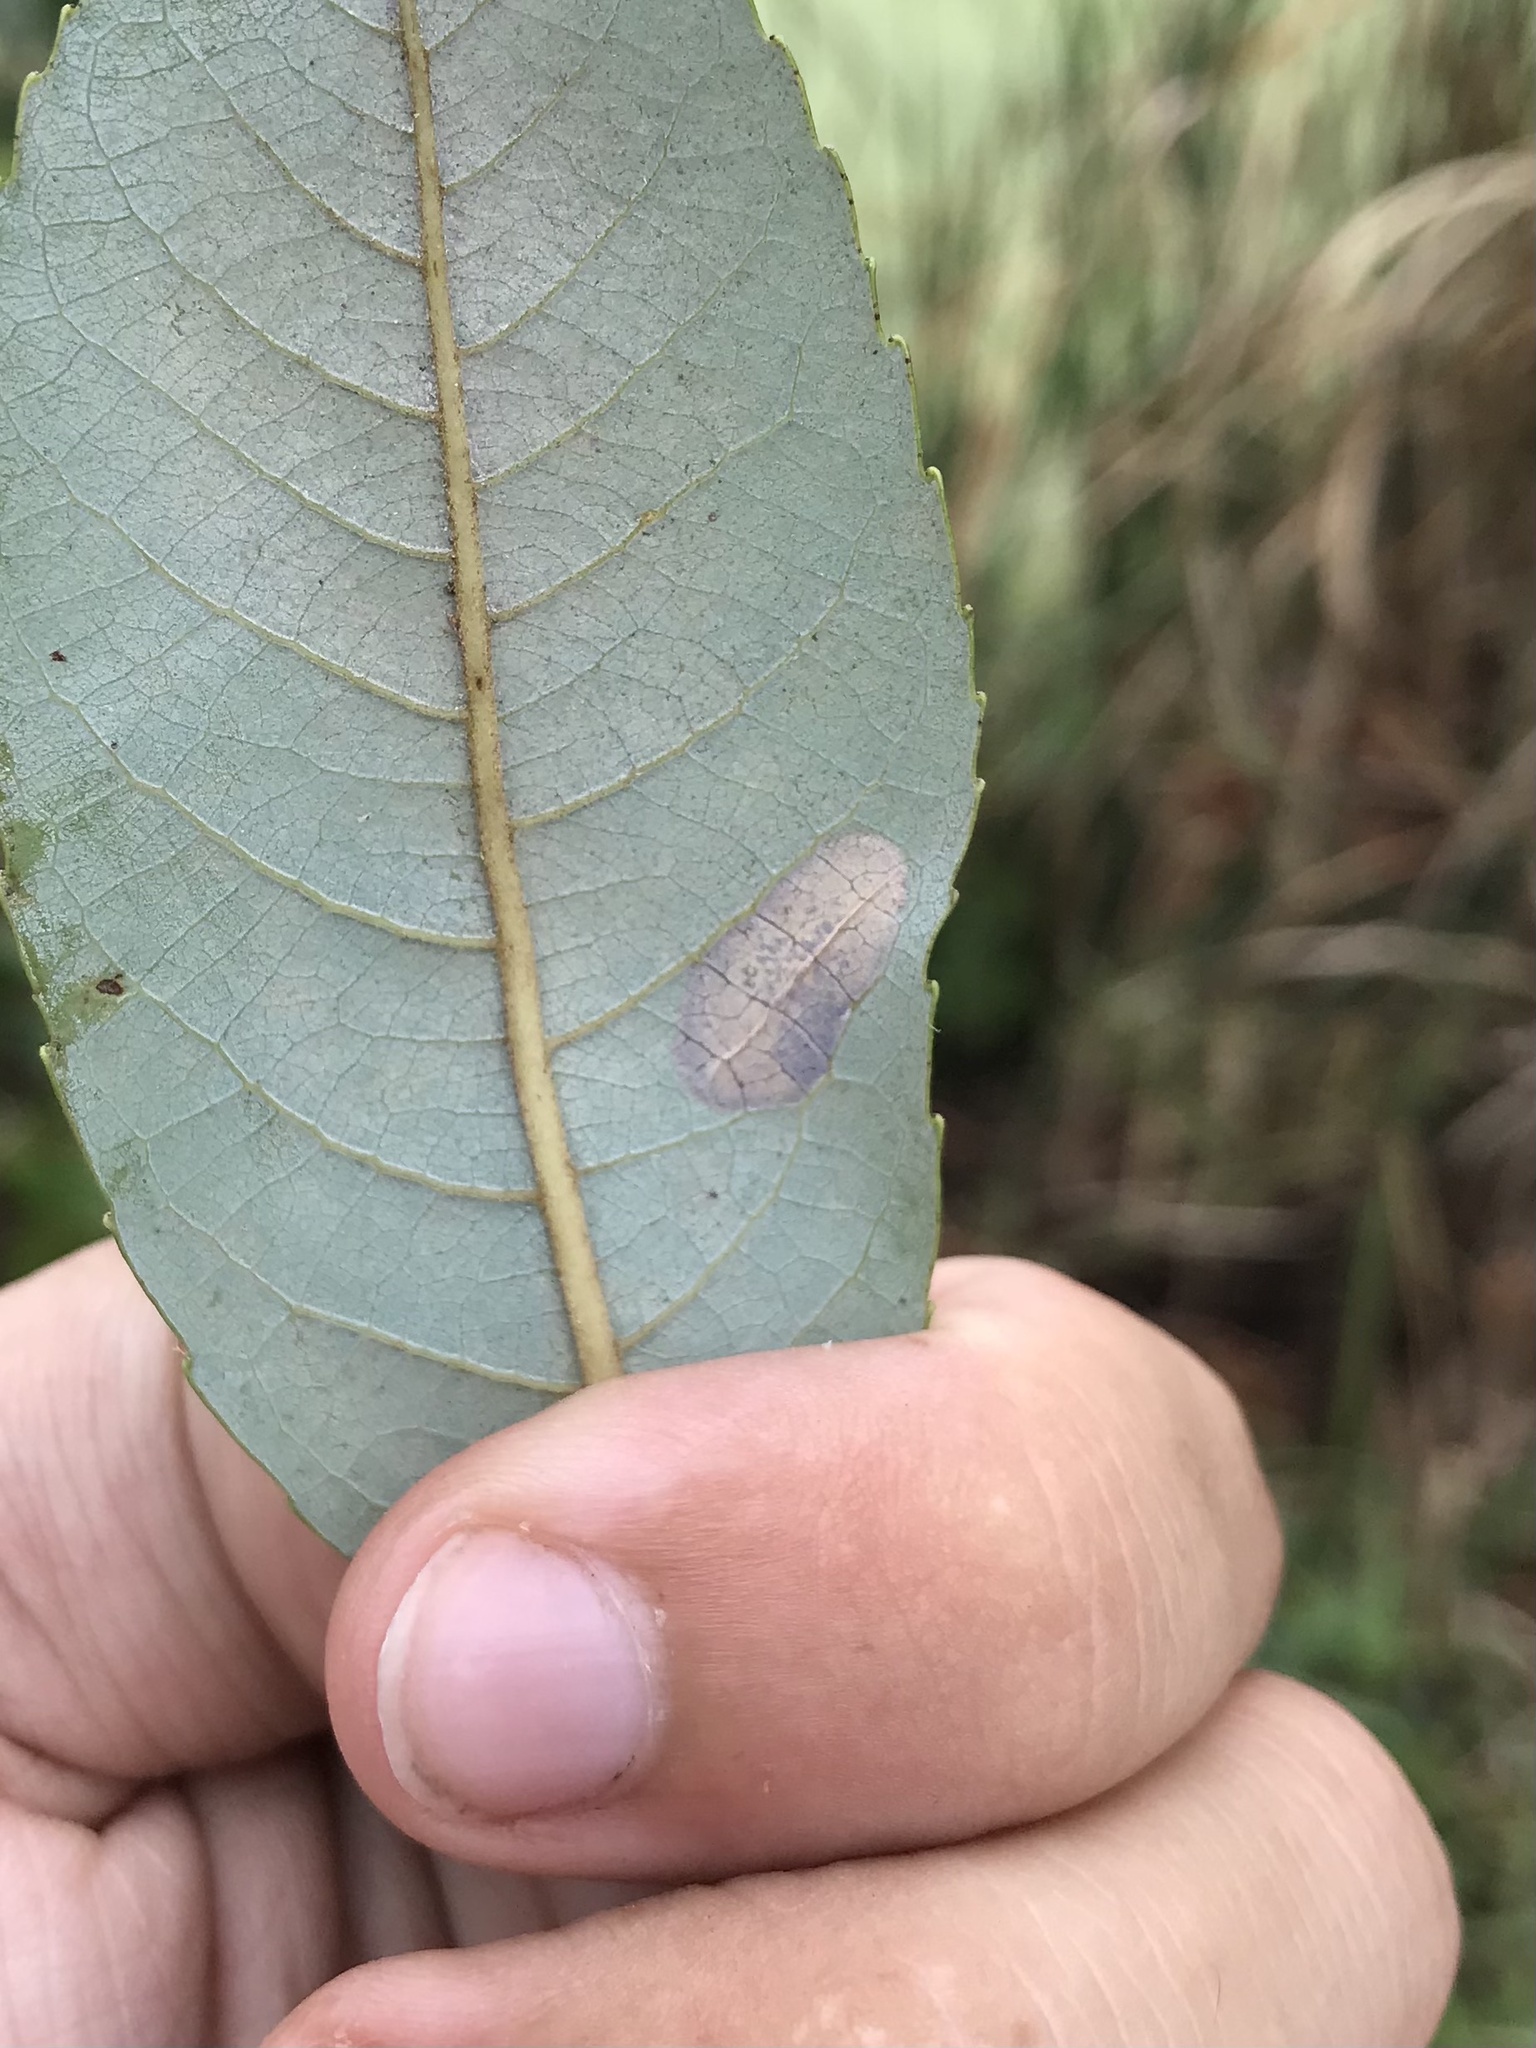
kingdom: Animalia
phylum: Arthropoda
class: Insecta
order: Lepidoptera
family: Gracillariidae
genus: Phyllonorycter
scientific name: Phyllonorycter salicifoliella
